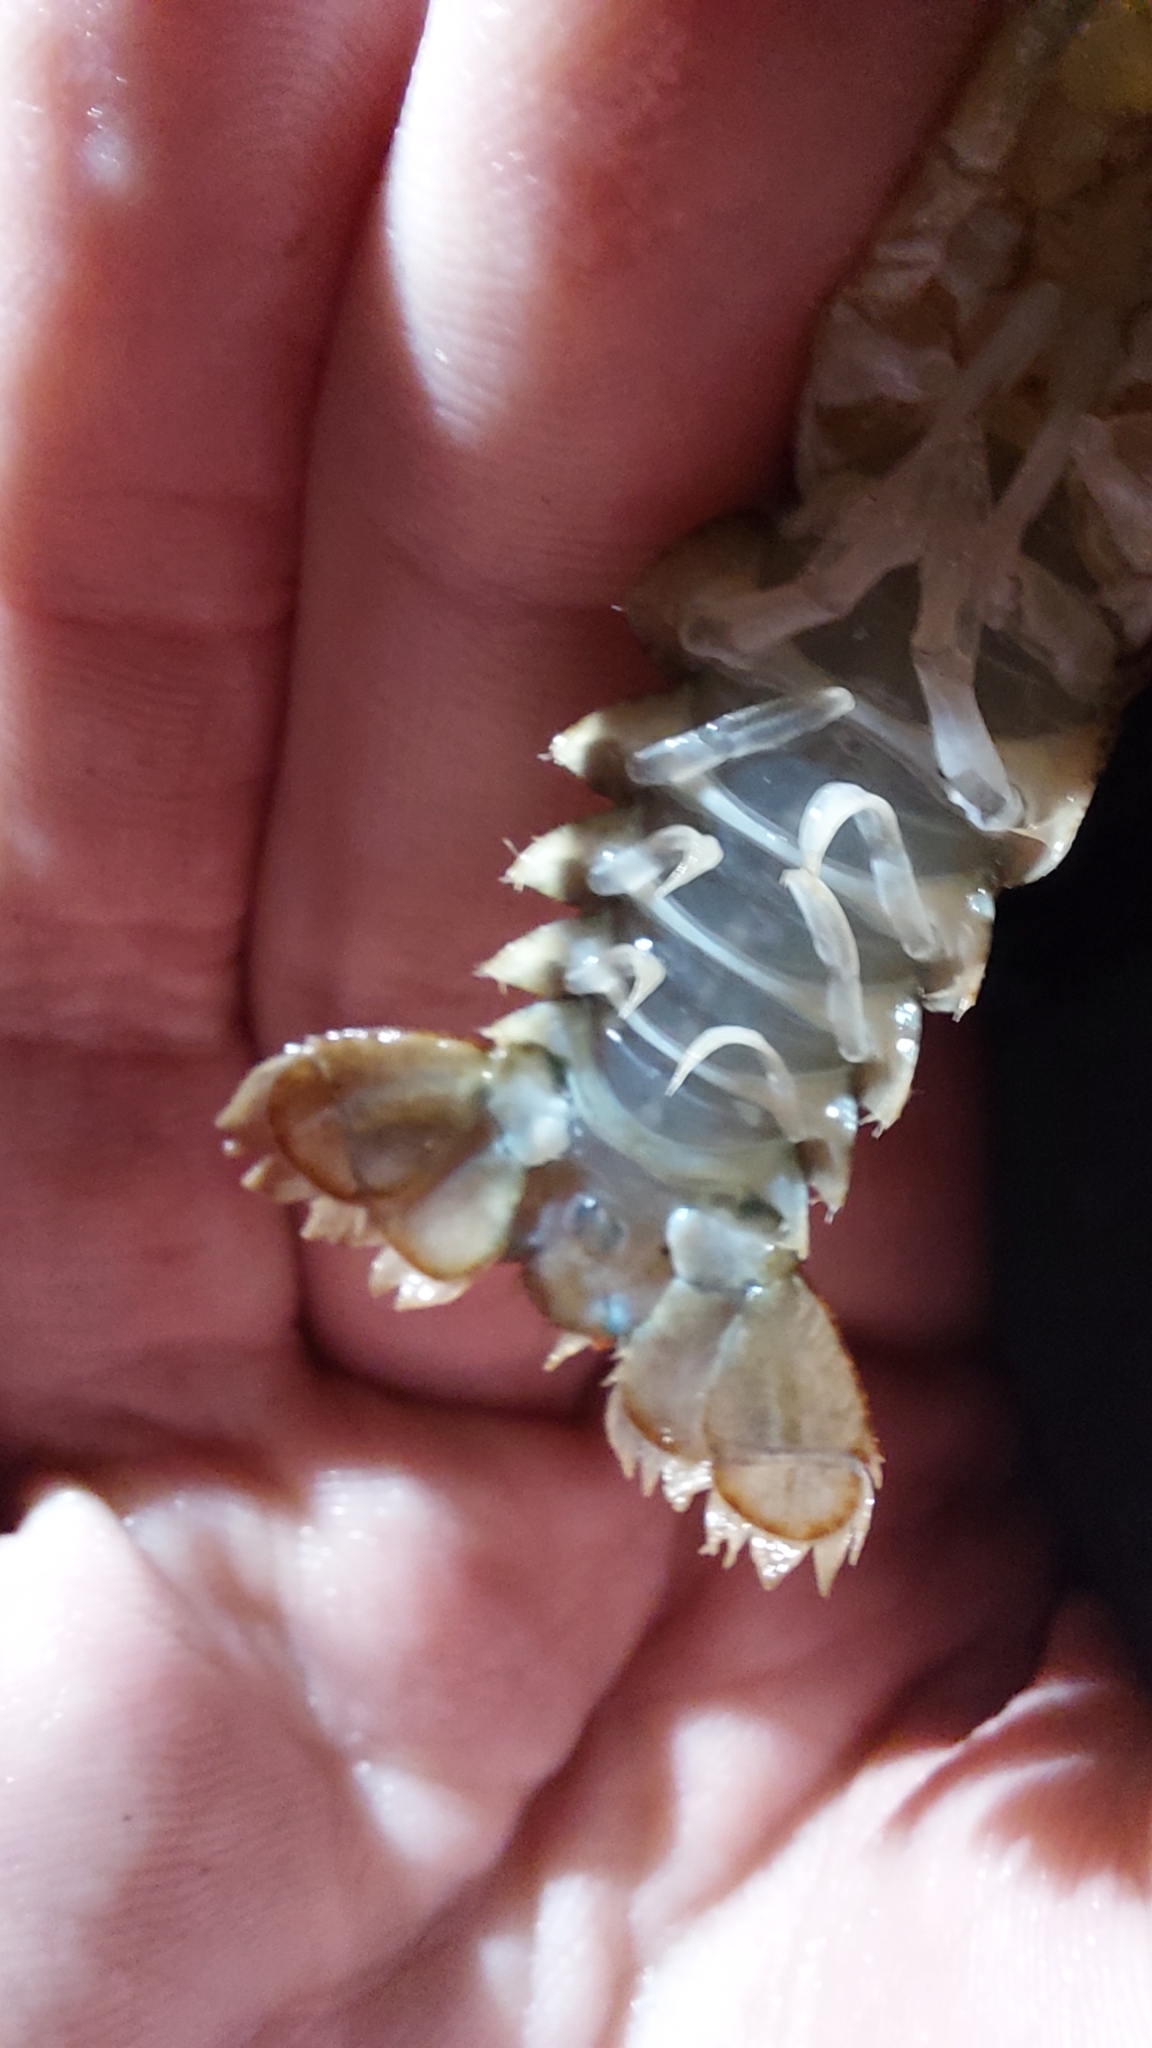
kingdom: Animalia
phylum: Arthropoda
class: Malacostraca
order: Decapoda
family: Astacidae
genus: Pontastacus
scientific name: Pontastacus leptodactylus
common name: Danube crayfish
